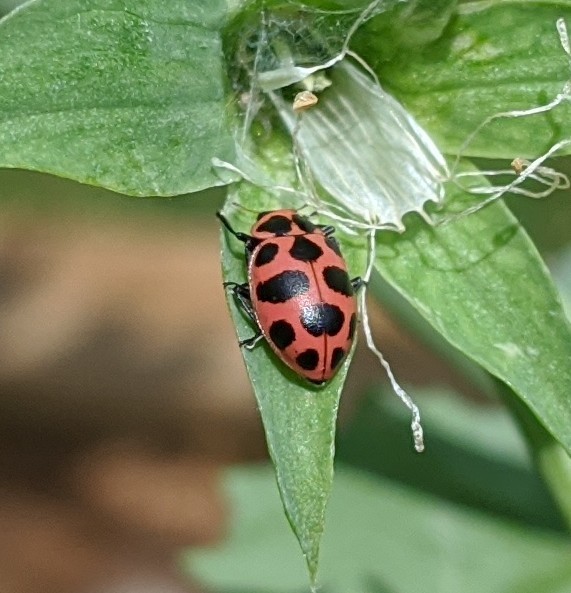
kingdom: Animalia
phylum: Arthropoda
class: Insecta
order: Coleoptera
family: Coccinellidae
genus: Coleomegilla
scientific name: Coleomegilla maculata
